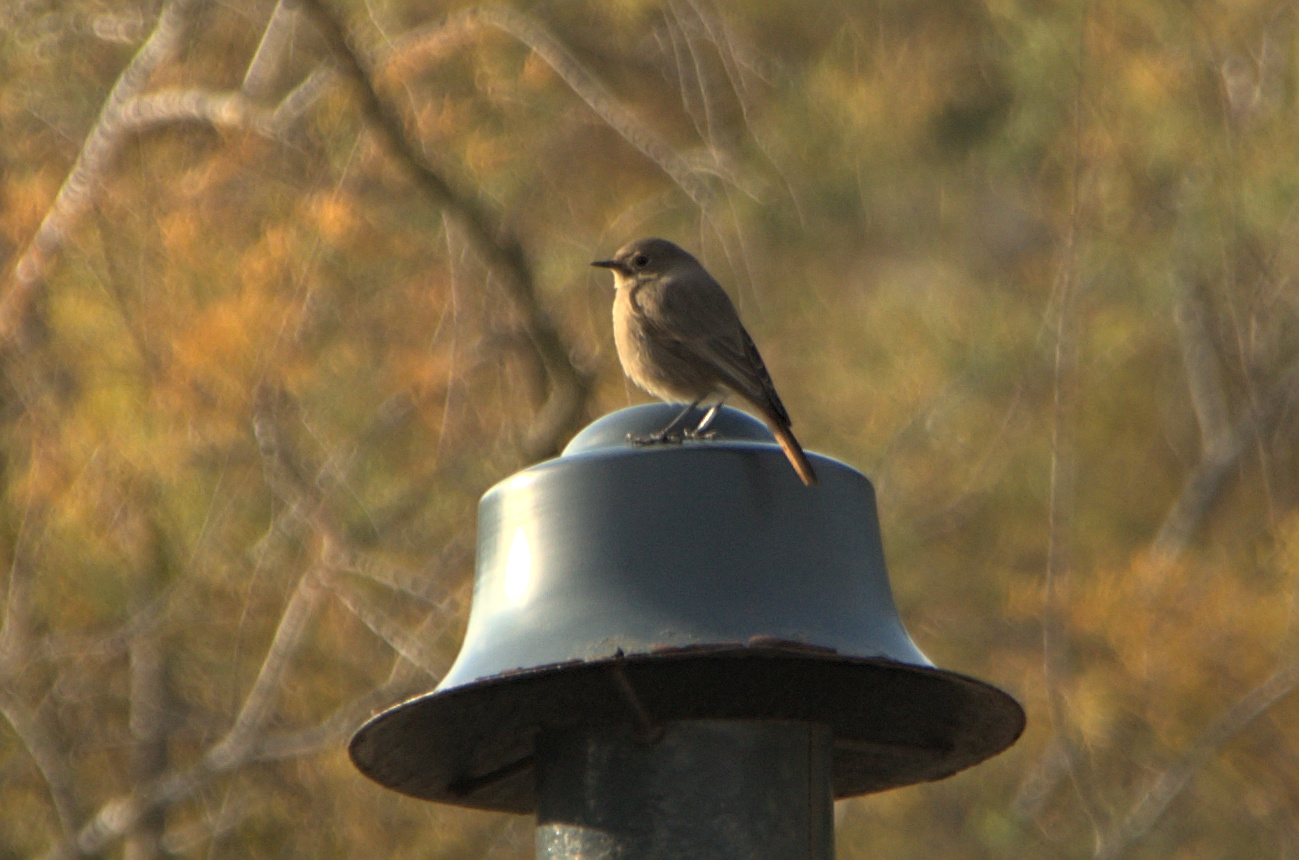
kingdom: Animalia
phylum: Chordata
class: Aves
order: Passeriformes
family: Muscicapidae
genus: Phoenicurus
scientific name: Phoenicurus ochruros
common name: Black redstart
